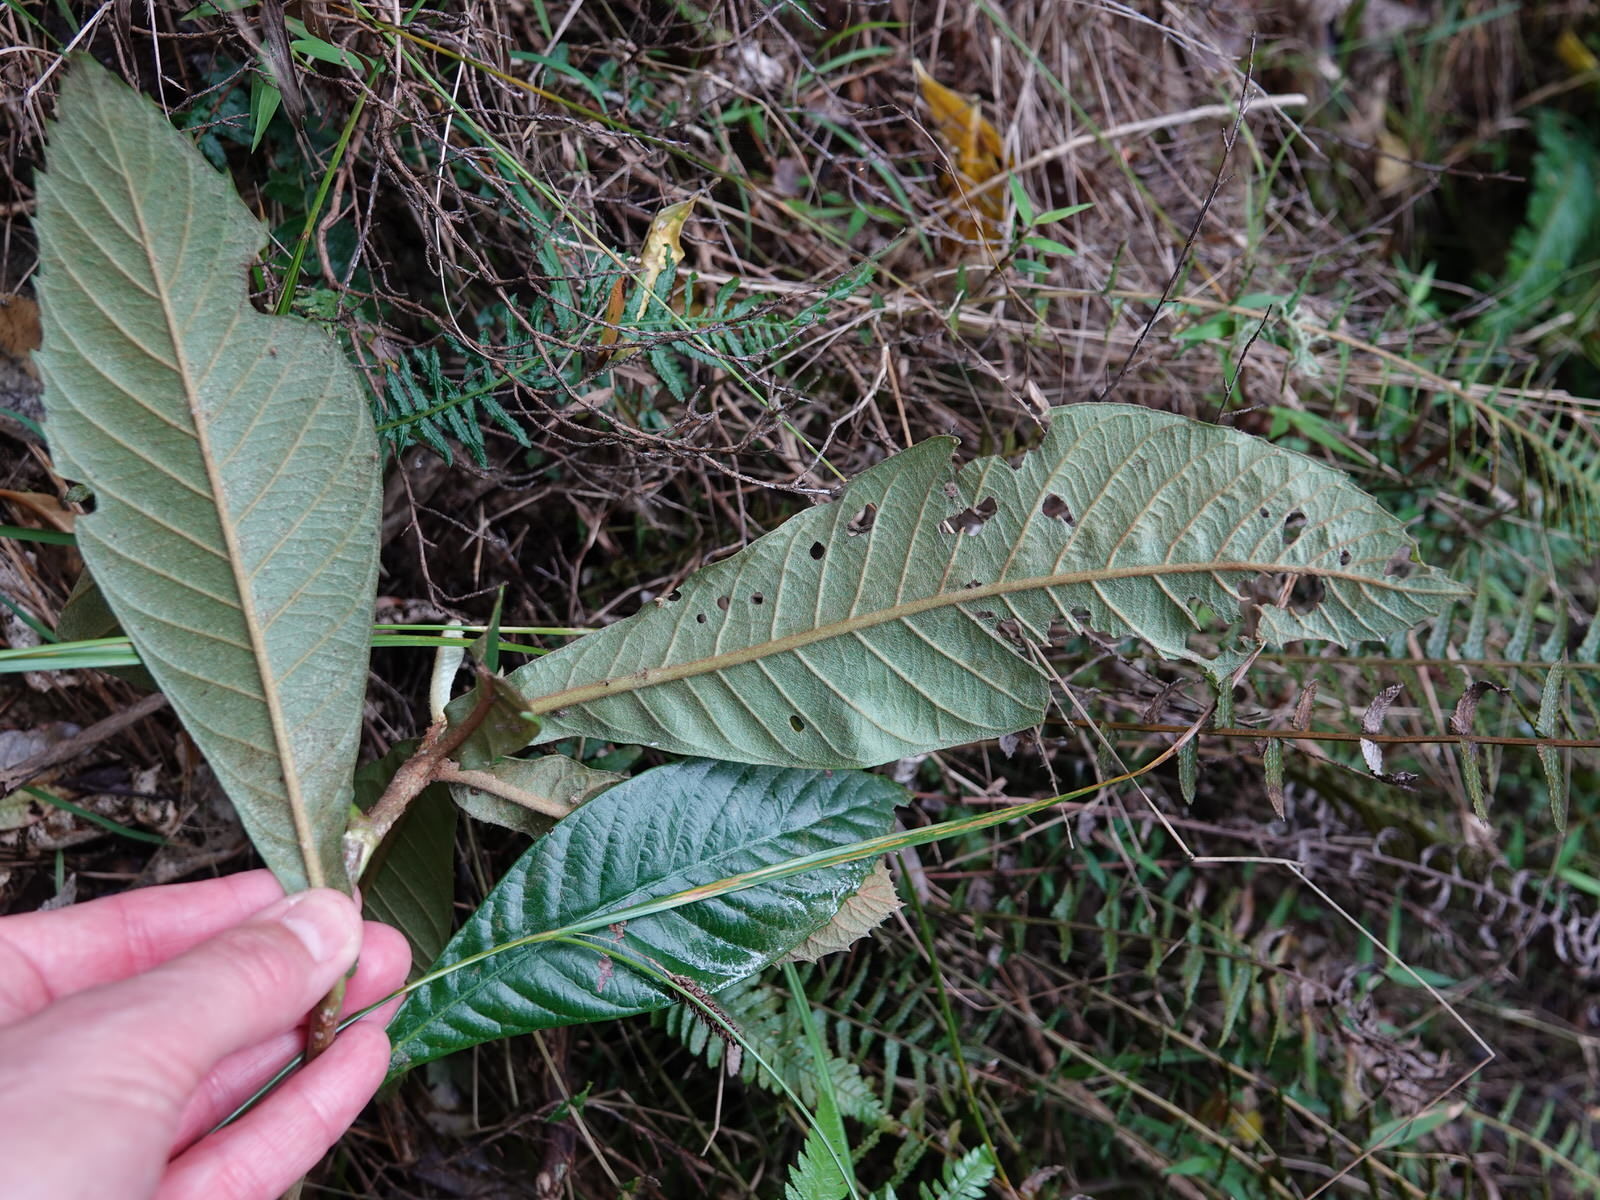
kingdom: Plantae
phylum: Tracheophyta
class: Magnoliopsida
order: Rosales
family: Rosaceae
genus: Rhaphiolepis
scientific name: Rhaphiolepis bibas
